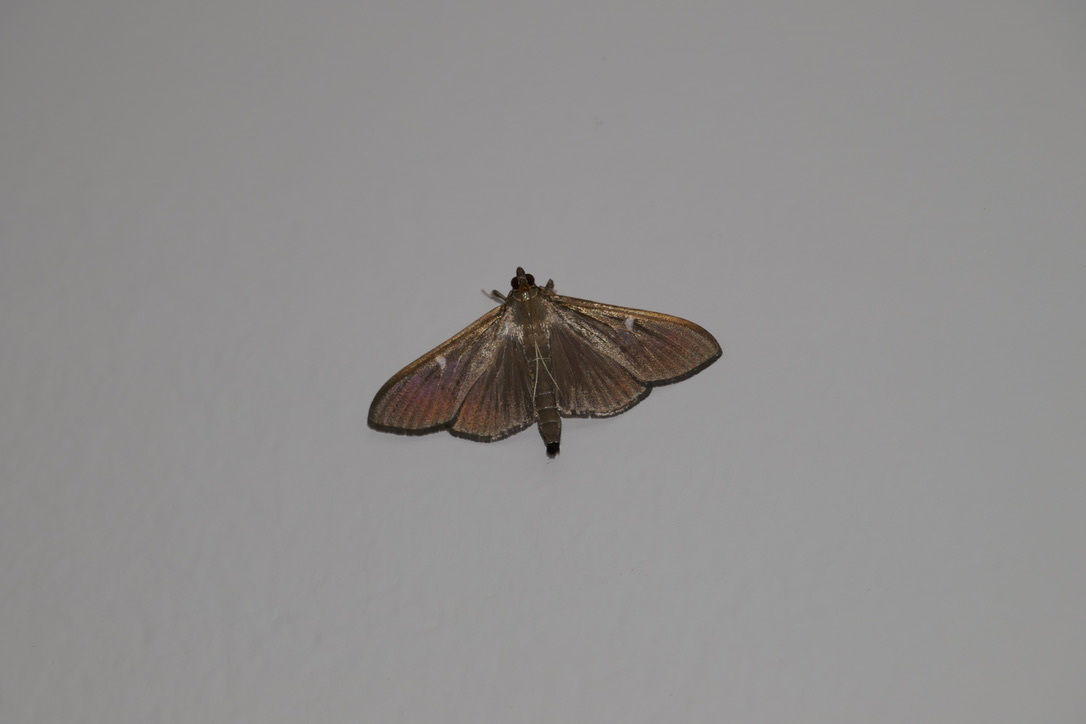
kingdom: Animalia
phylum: Arthropoda
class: Insecta
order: Lepidoptera
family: Crambidae
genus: Cydalima
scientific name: Cydalima perspectalis
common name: Box tree moth
